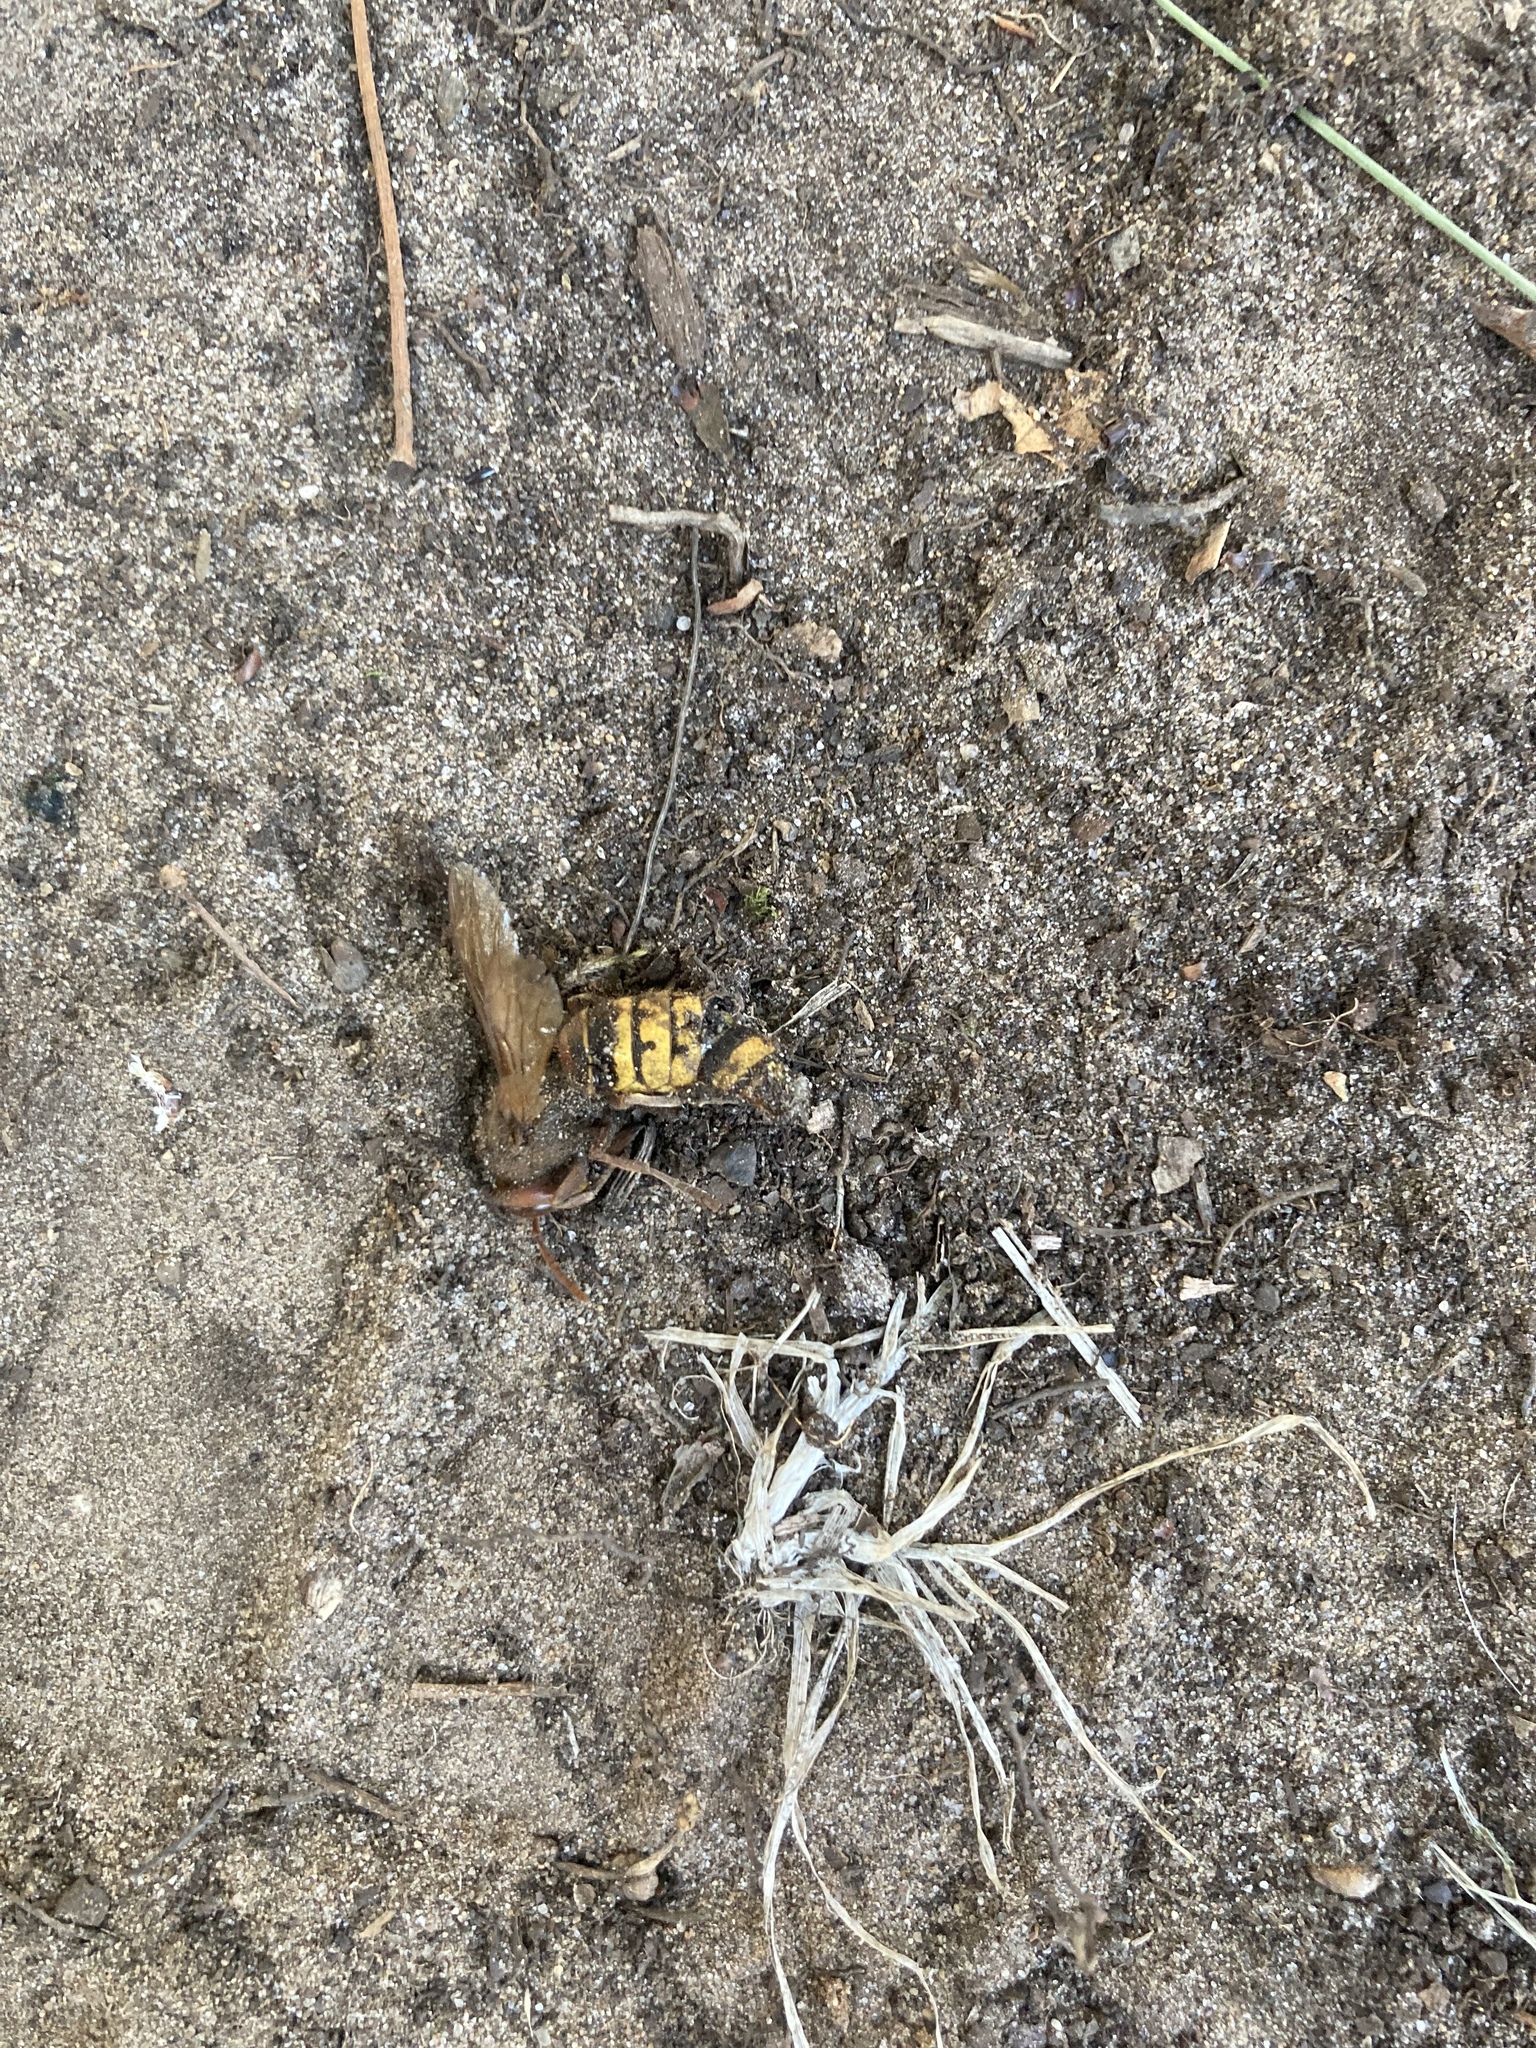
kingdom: Animalia
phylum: Arthropoda
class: Insecta
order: Hymenoptera
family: Vespidae
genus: Vespa
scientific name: Vespa crabro
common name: Hornet
